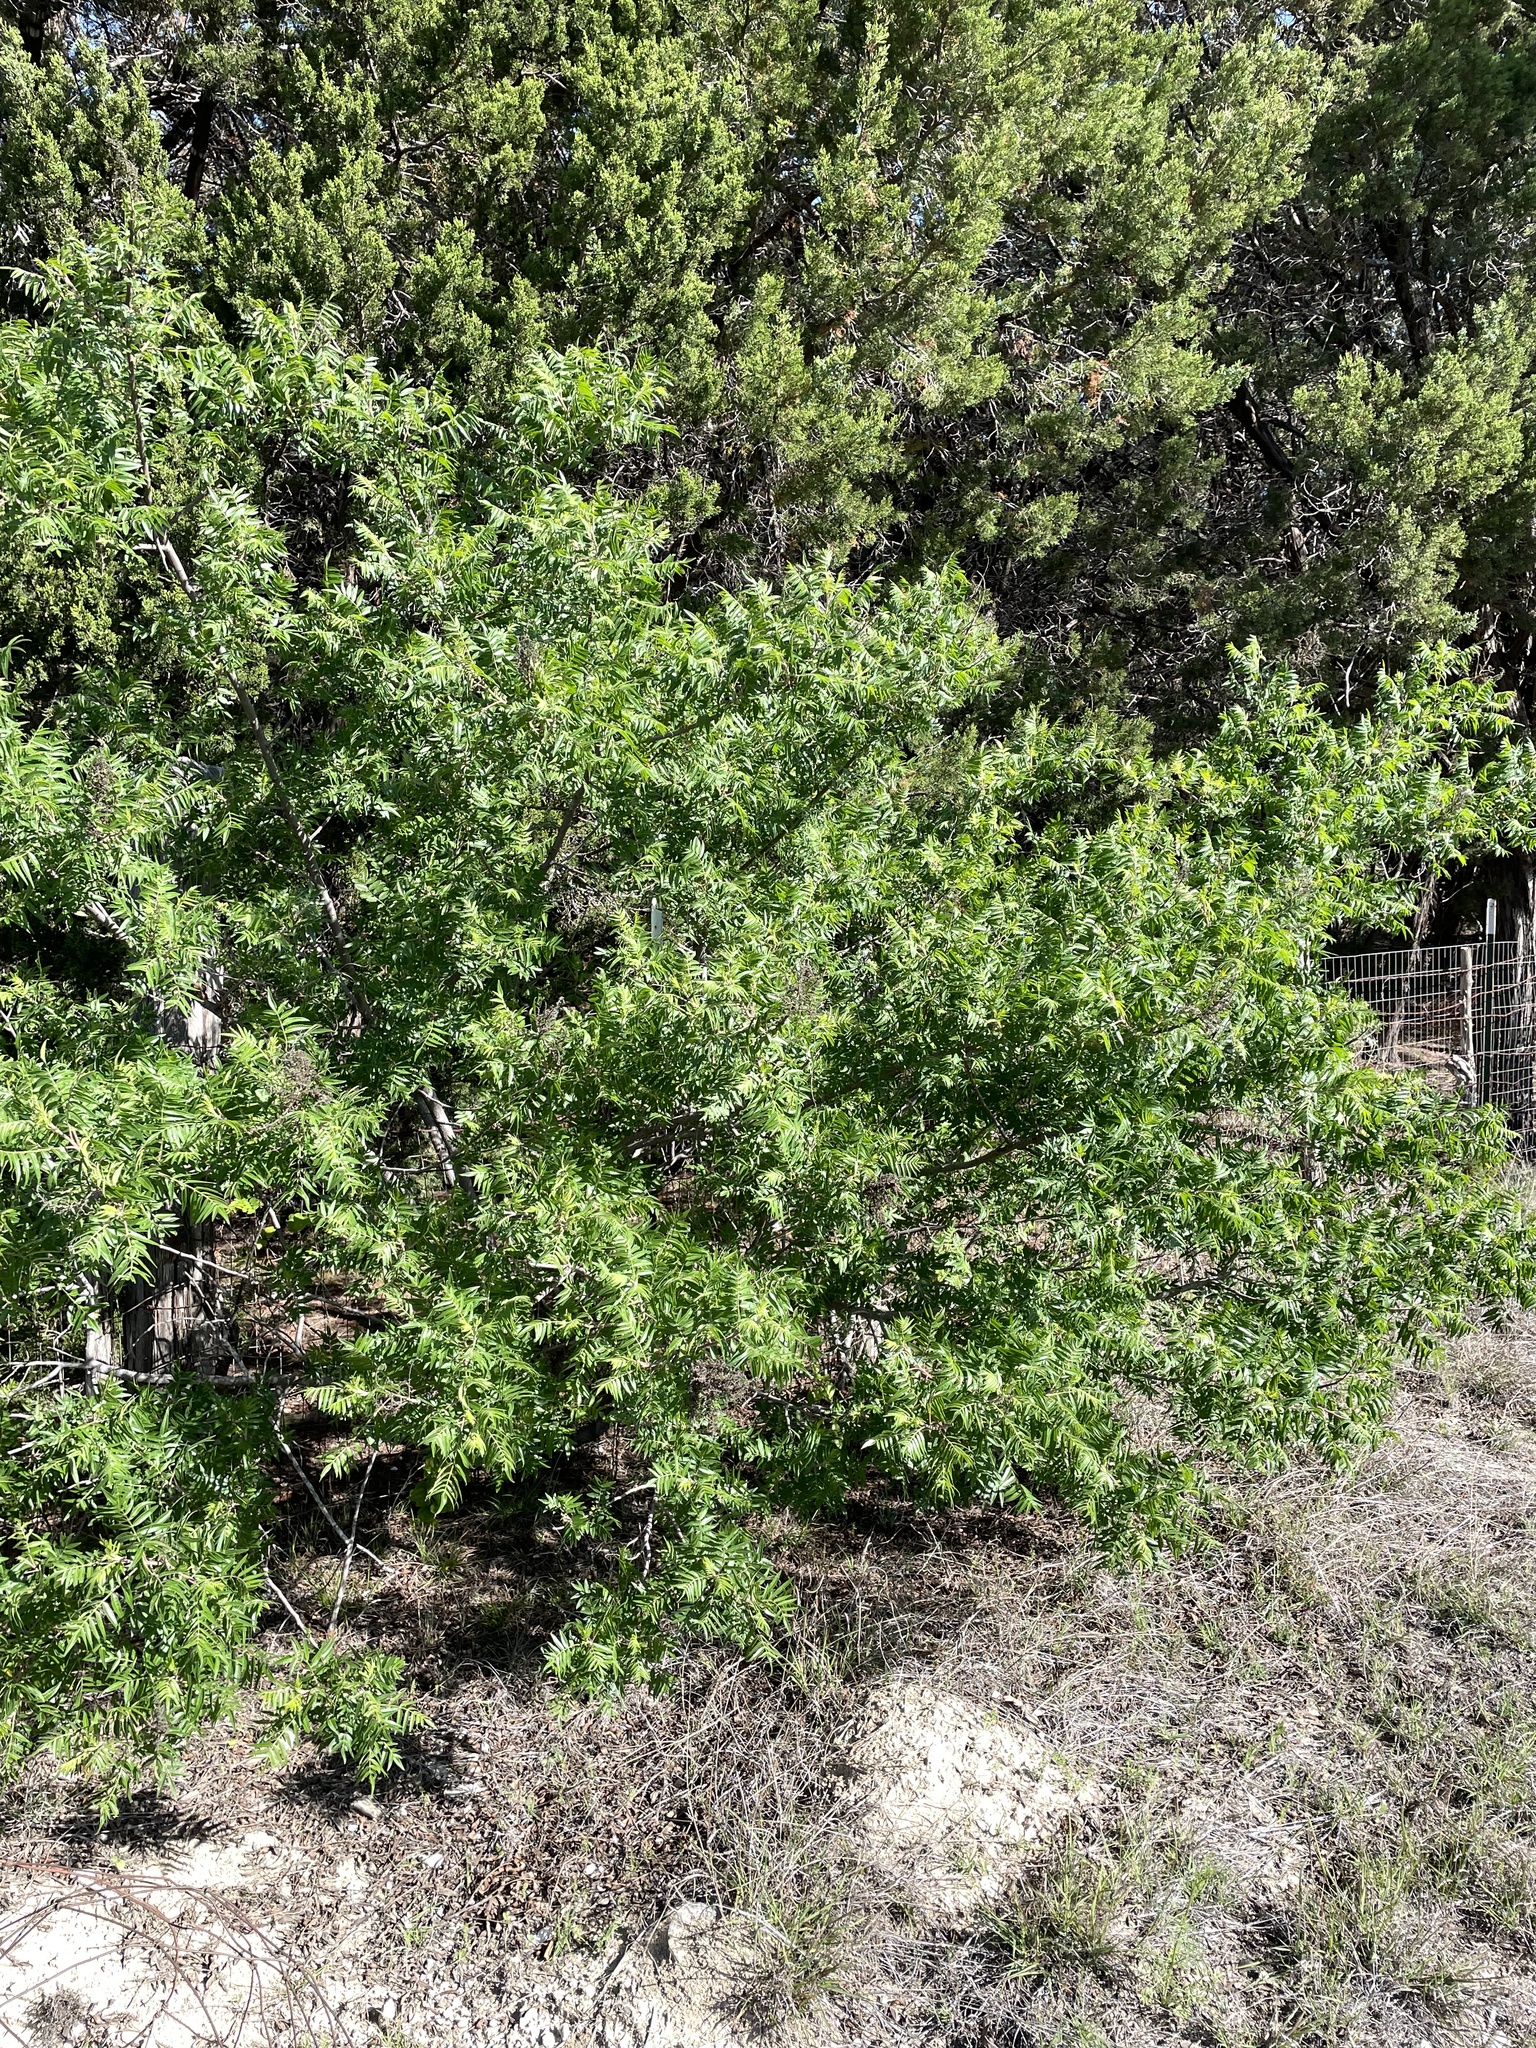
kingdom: Plantae
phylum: Tracheophyta
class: Magnoliopsida
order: Sapindales
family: Anacardiaceae
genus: Rhus
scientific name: Rhus lanceolata
